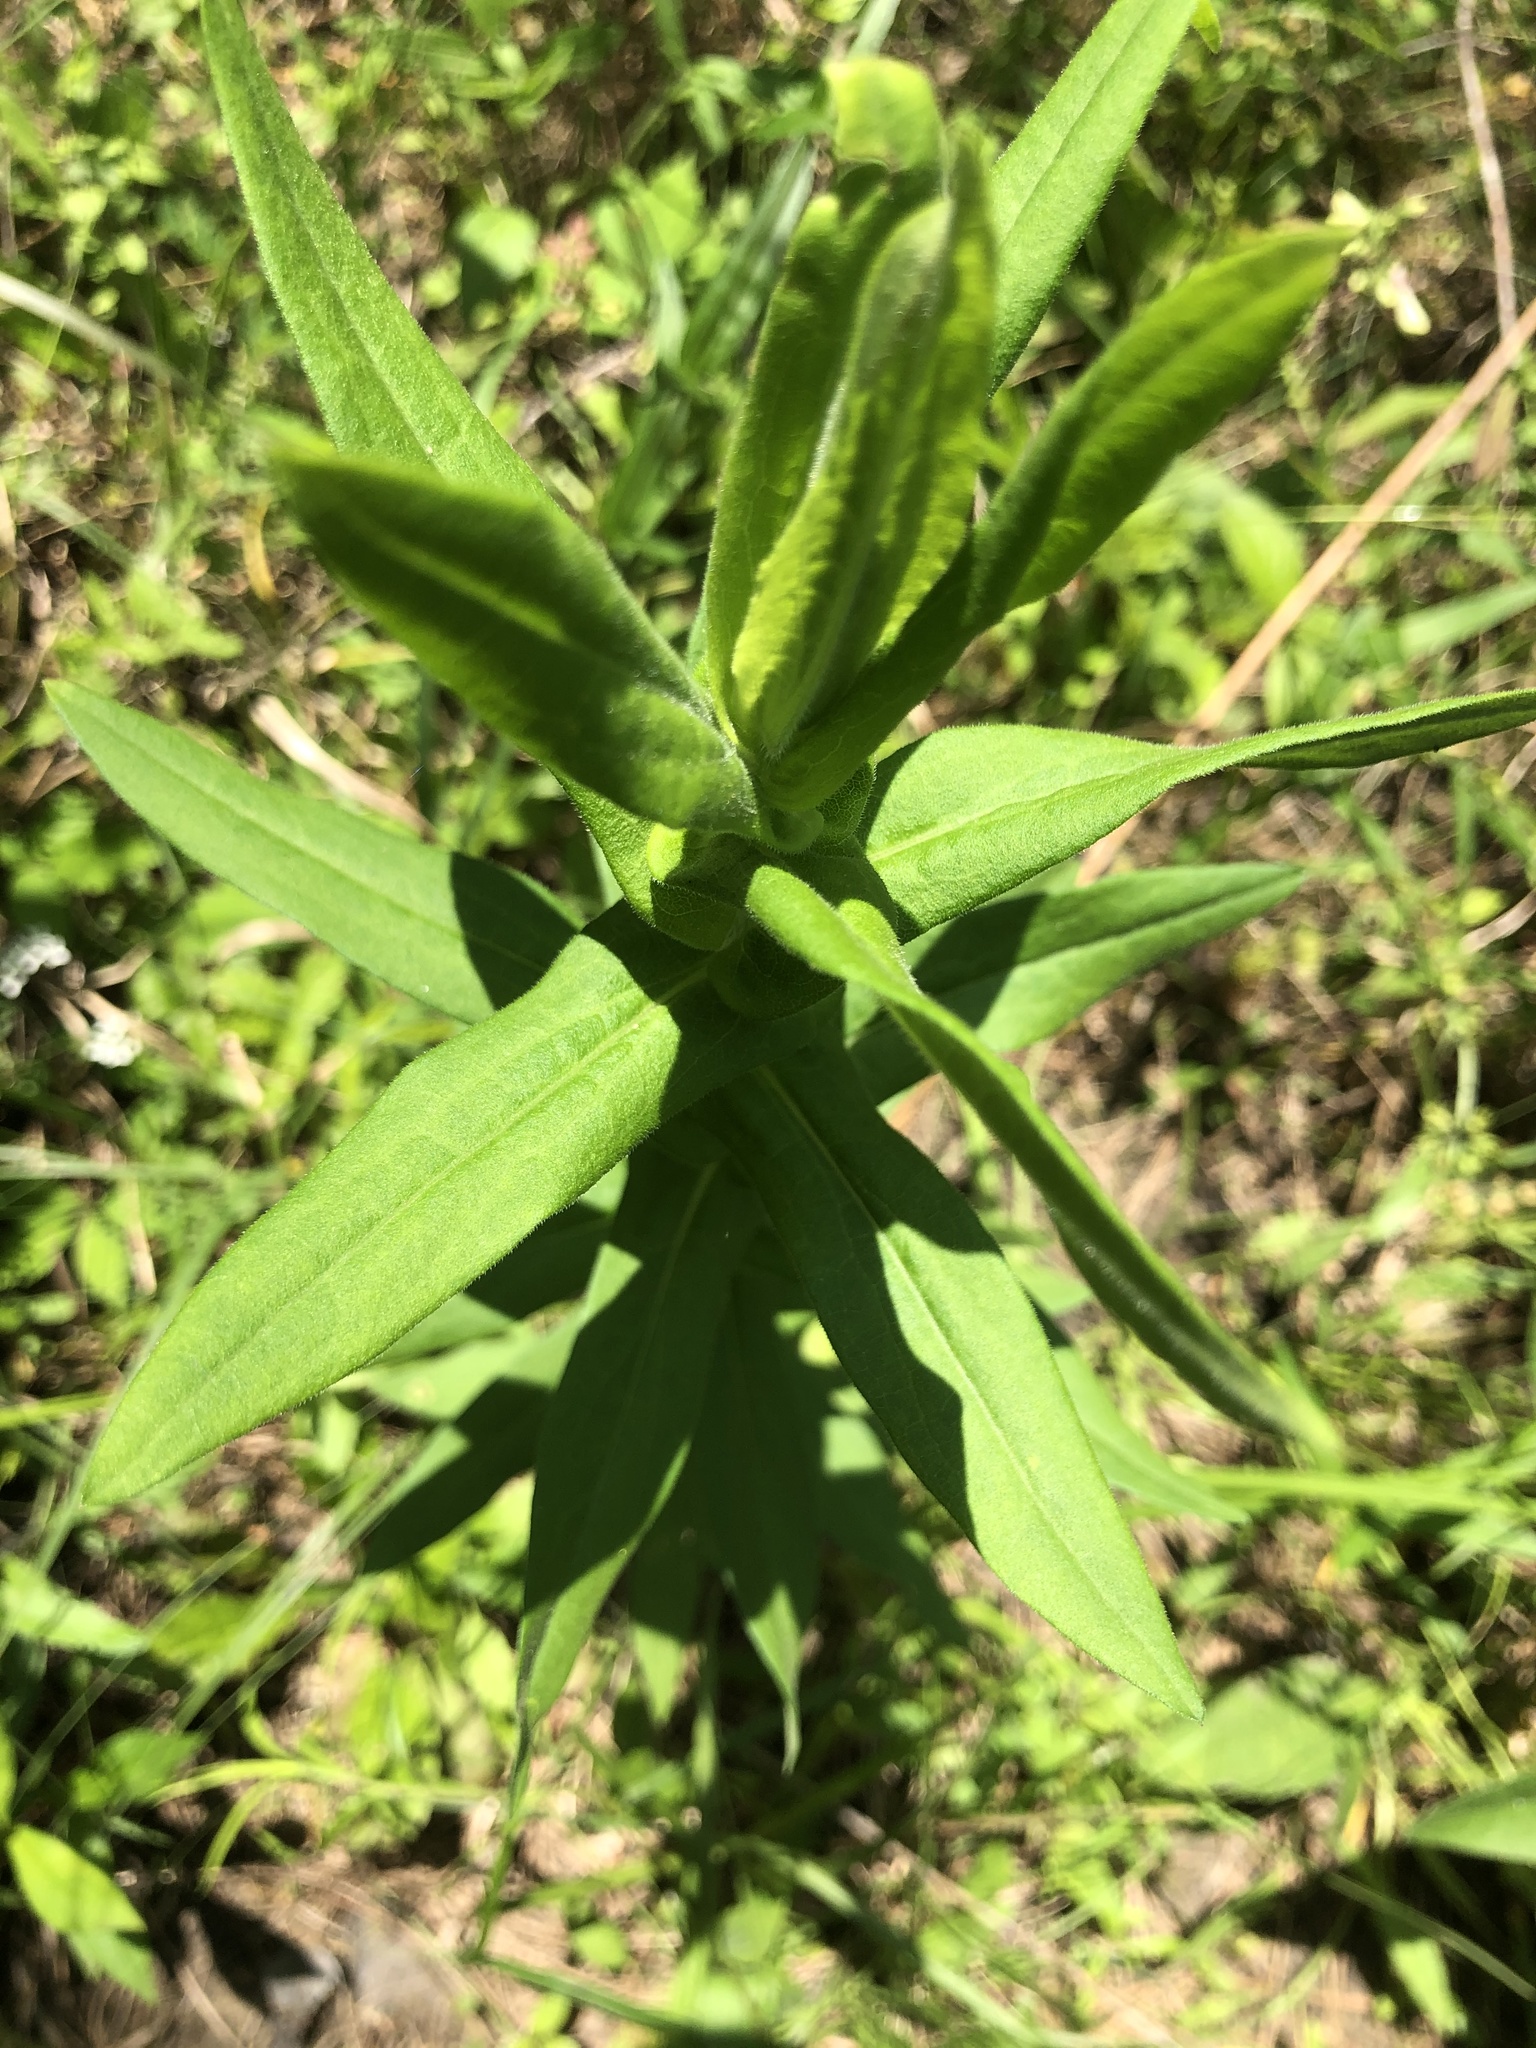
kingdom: Plantae
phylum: Tracheophyta
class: Magnoliopsida
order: Asterales
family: Asteraceae
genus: Symphyotrichum
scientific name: Symphyotrichum novae-angliae
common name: Michaelmas daisy
